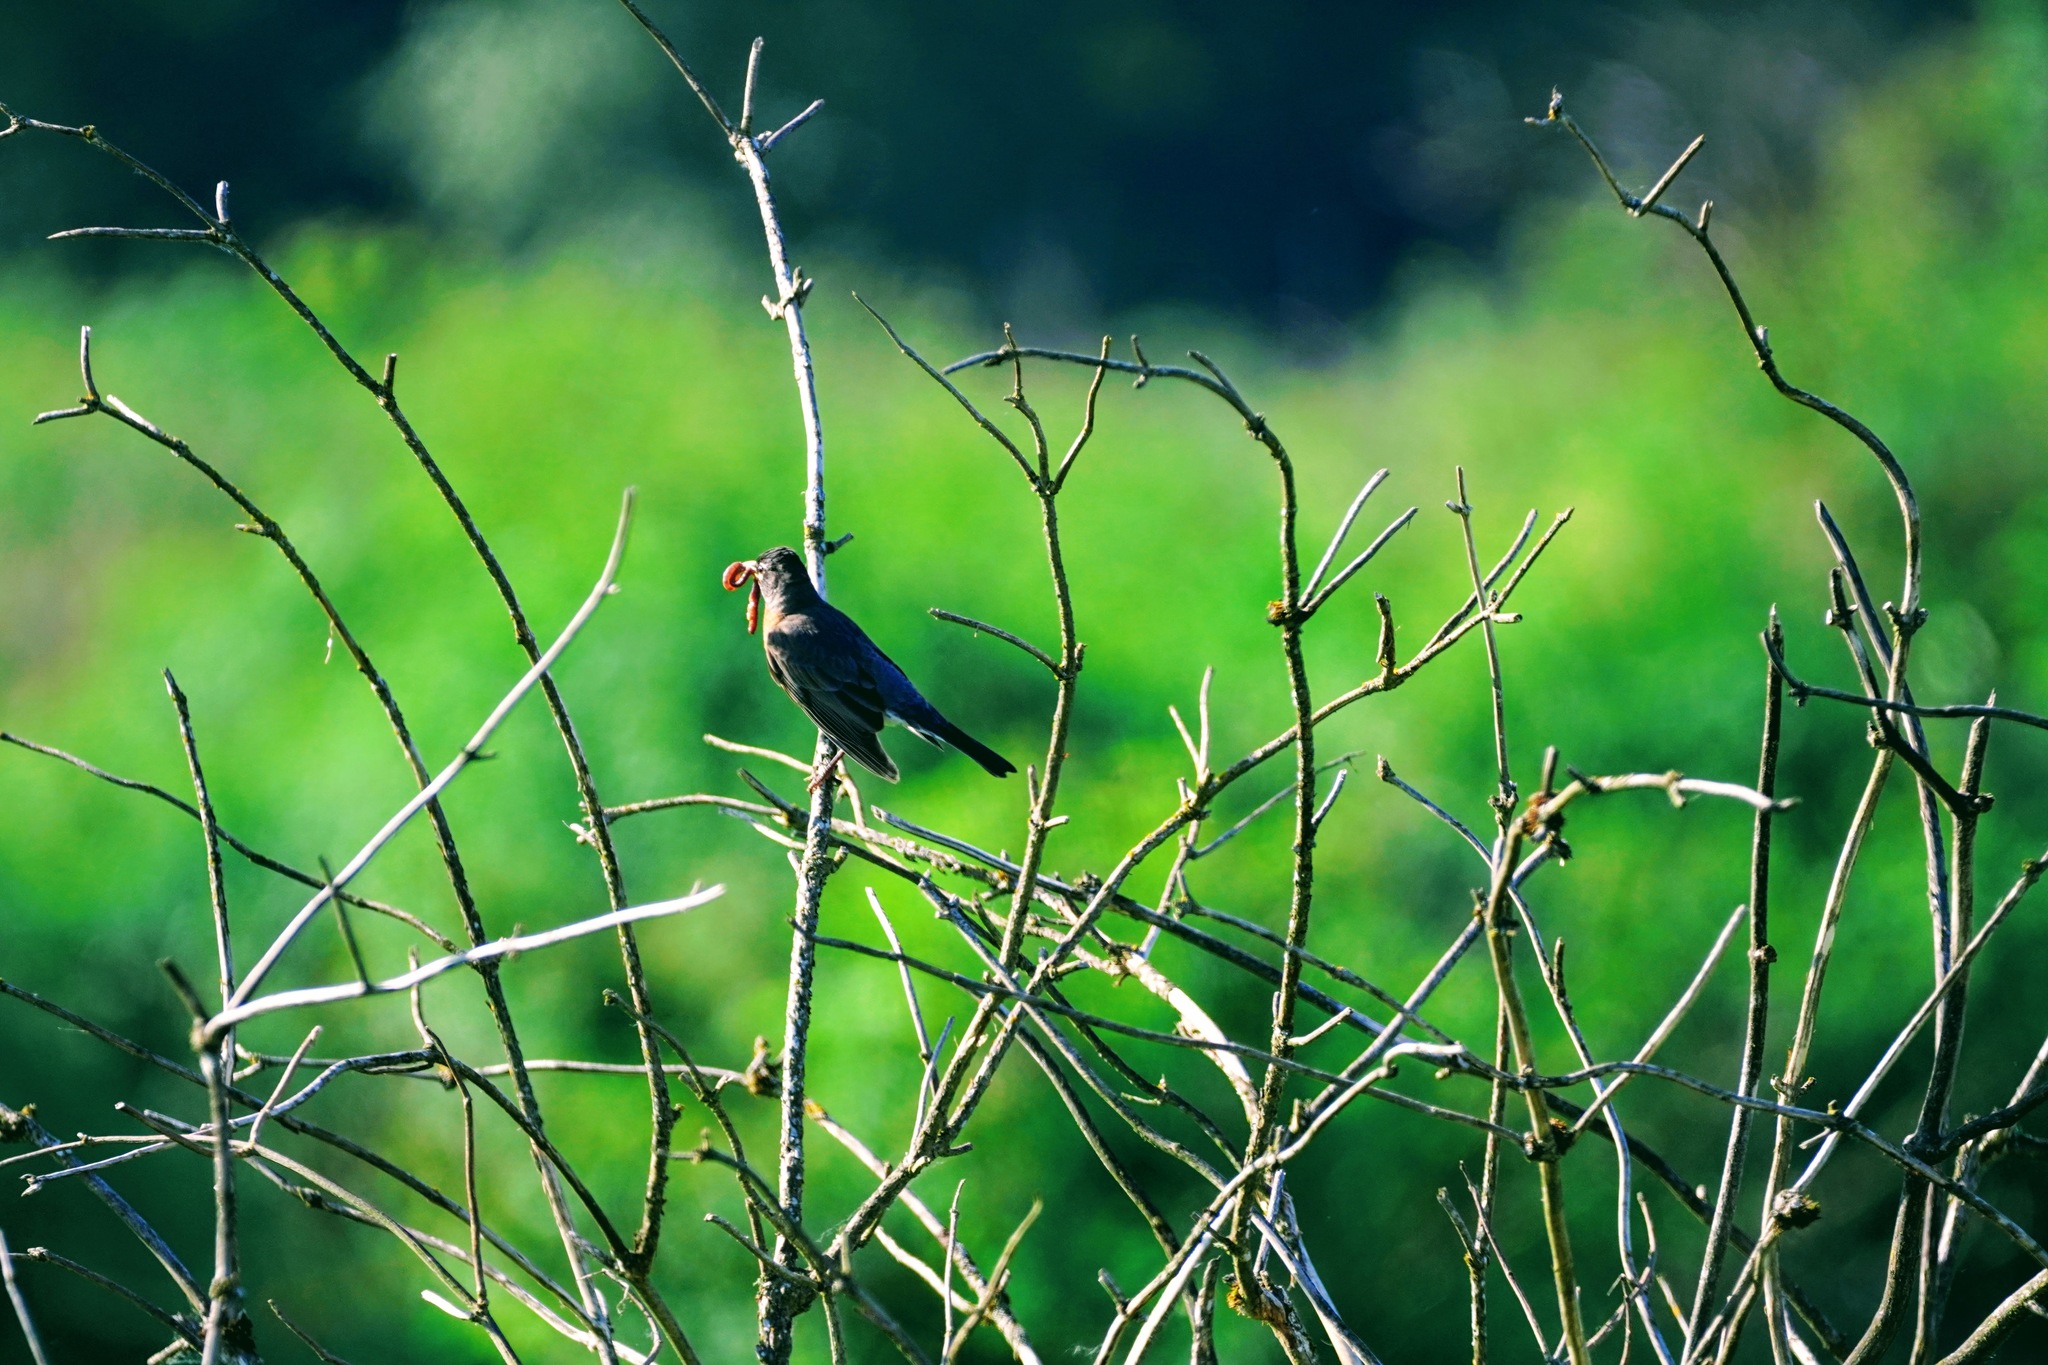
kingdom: Animalia
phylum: Chordata
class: Aves
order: Passeriformes
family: Turdidae
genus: Turdus
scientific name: Turdus migratorius
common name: American robin
